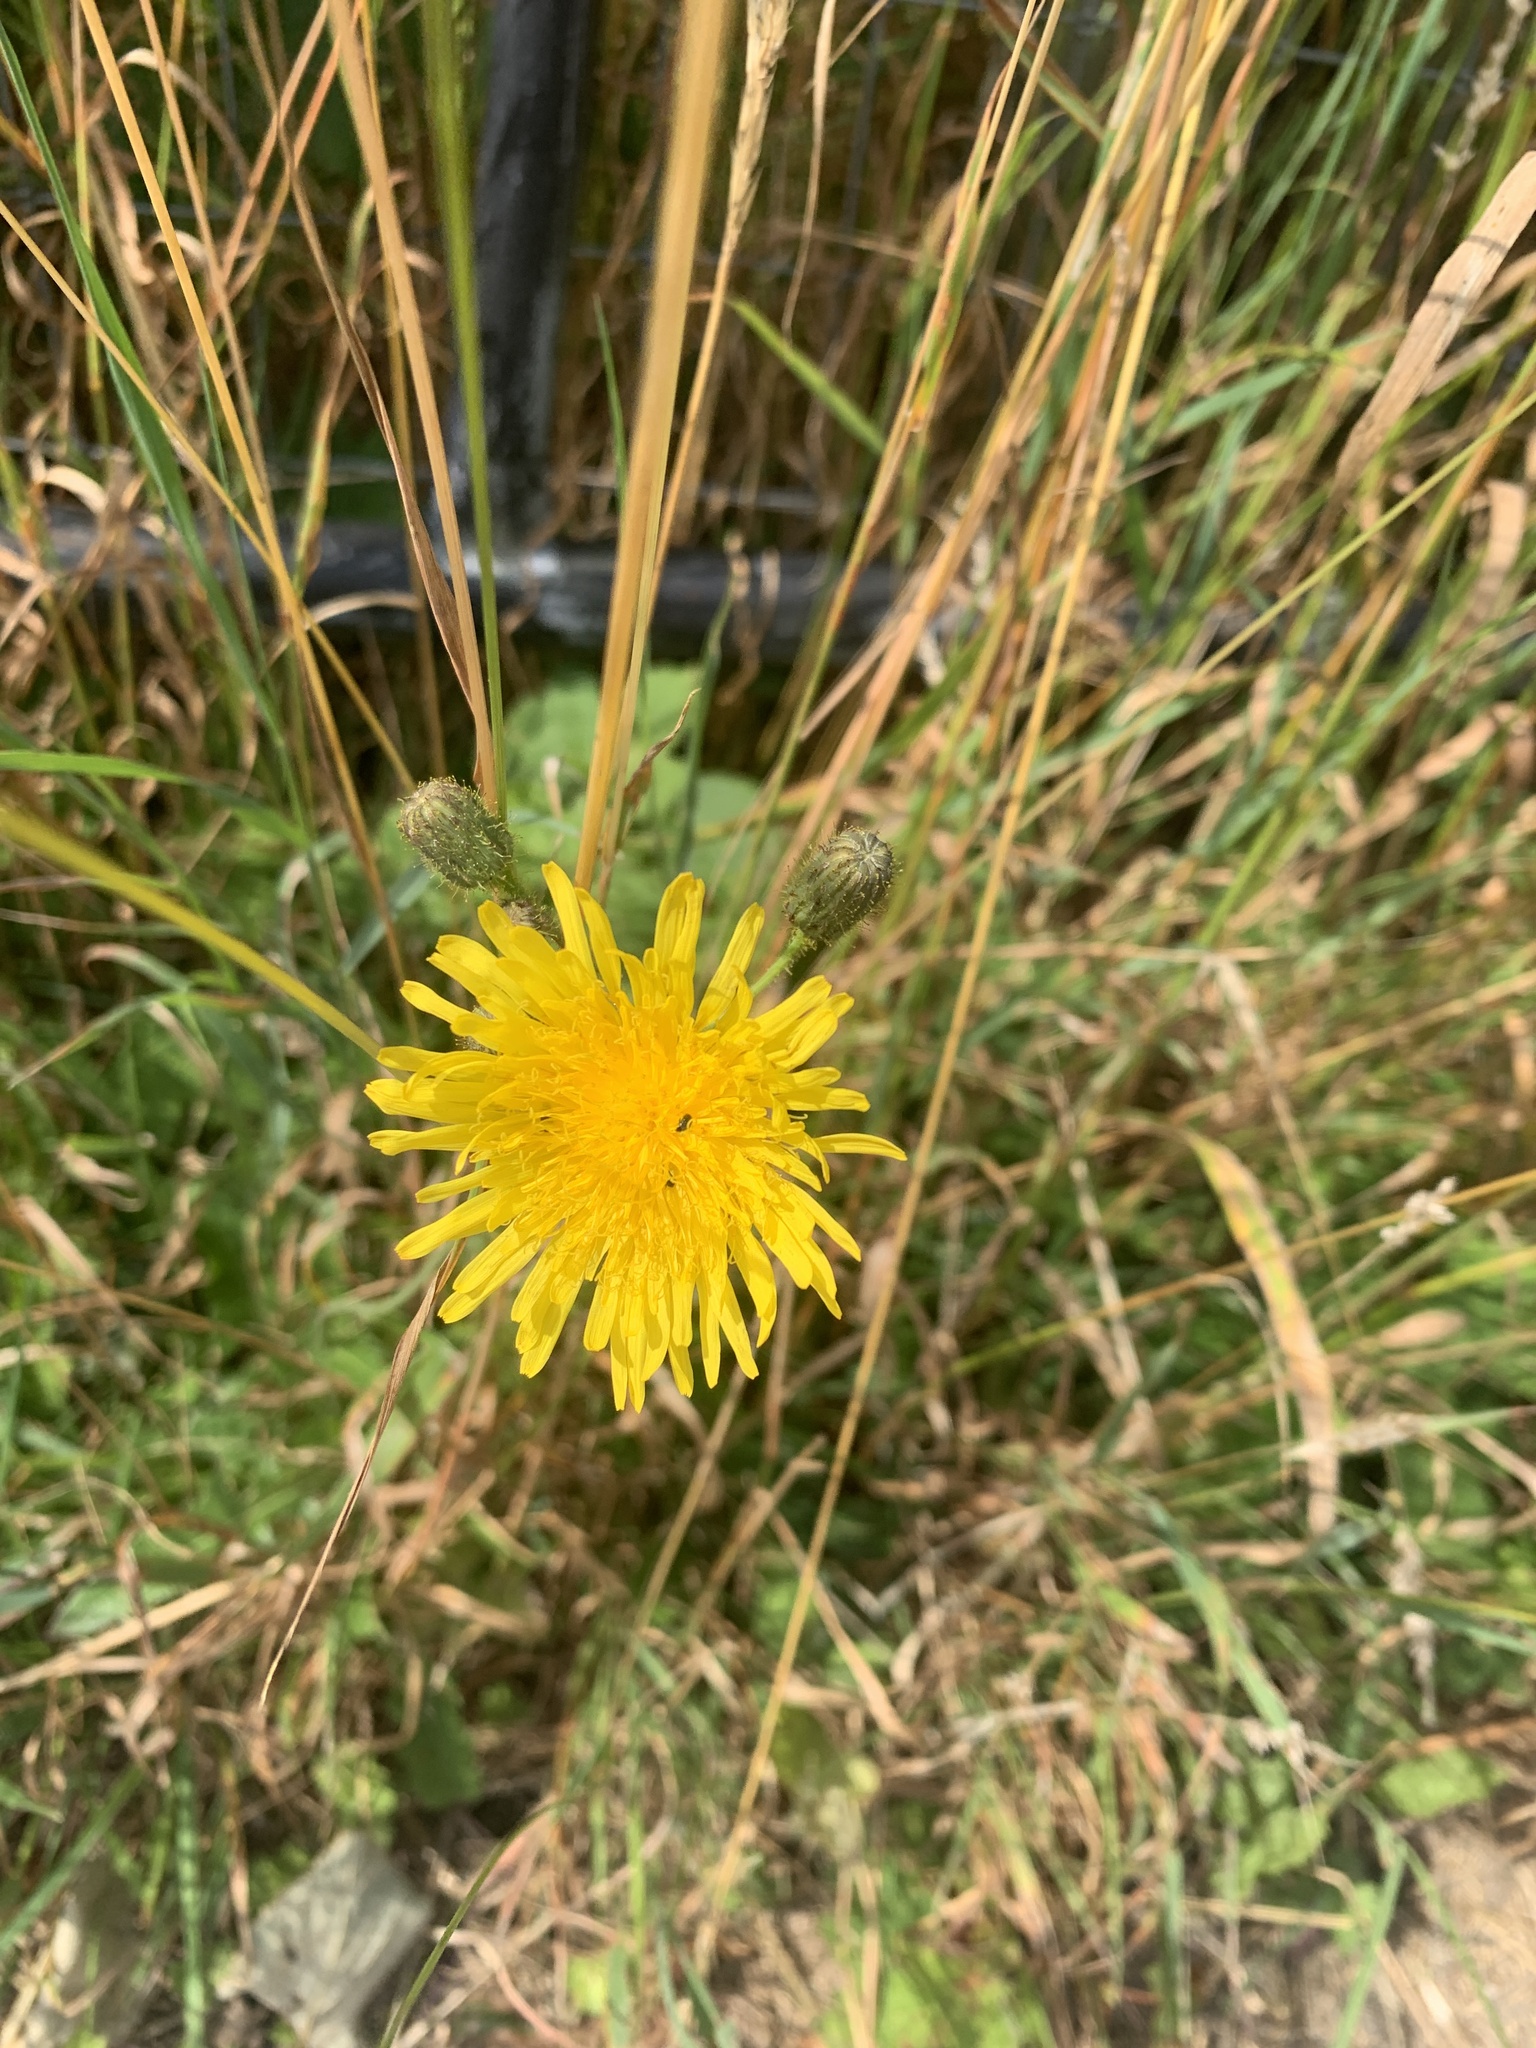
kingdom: Plantae
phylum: Tracheophyta
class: Magnoliopsida
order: Asterales
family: Asteraceae
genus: Sonchus
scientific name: Sonchus arvensis
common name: Perennial sow-thistle
